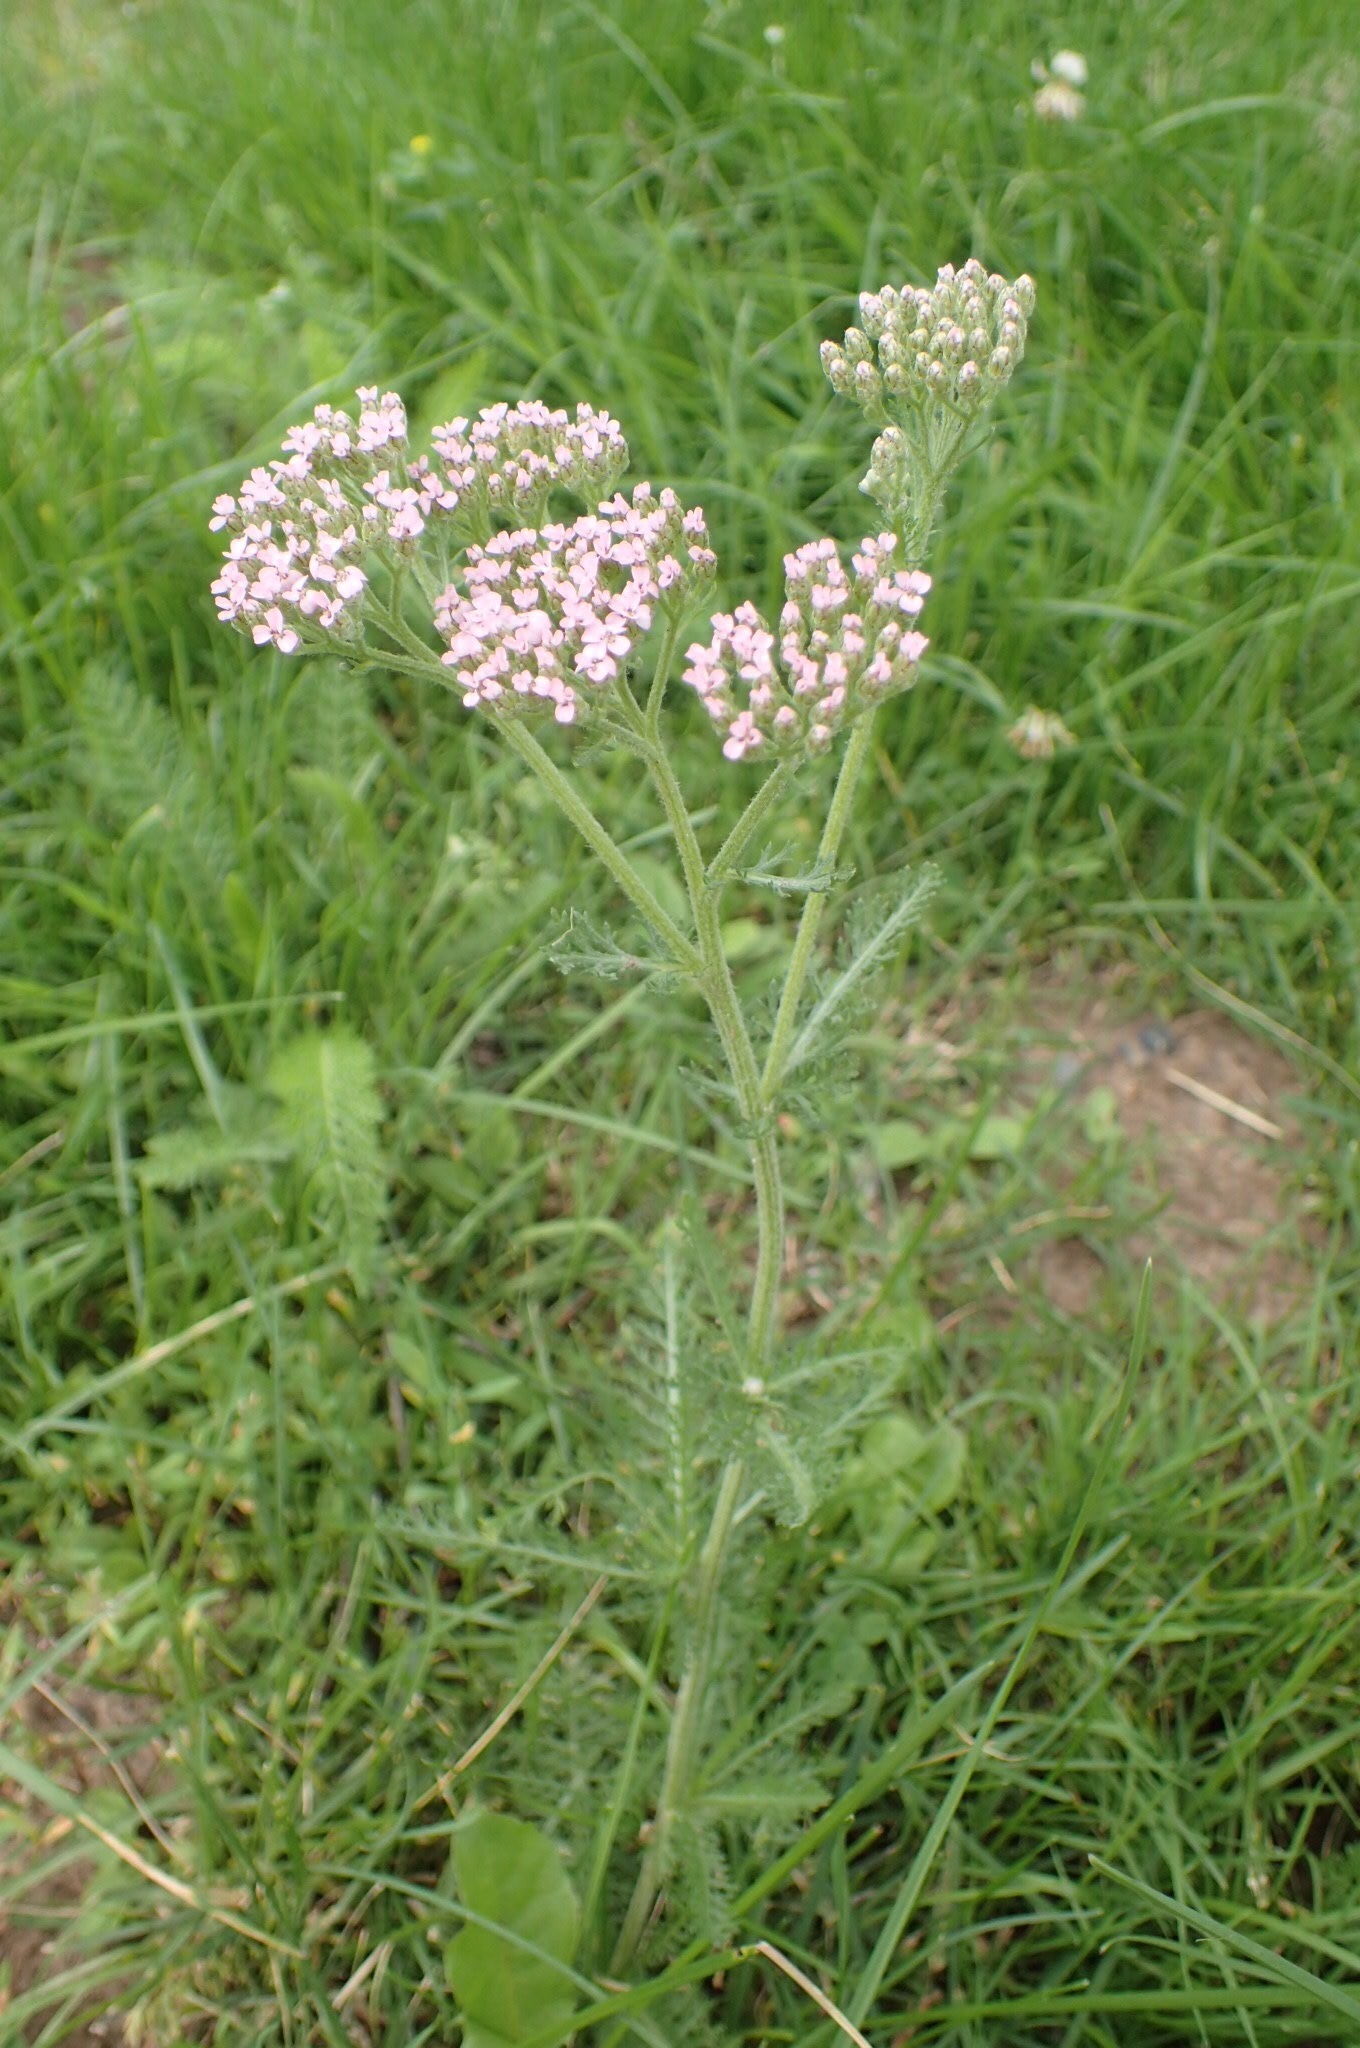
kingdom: Plantae
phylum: Tracheophyta
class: Magnoliopsida
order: Asterales
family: Asteraceae
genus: Achillea
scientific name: Achillea millefolium
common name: Yarrow
